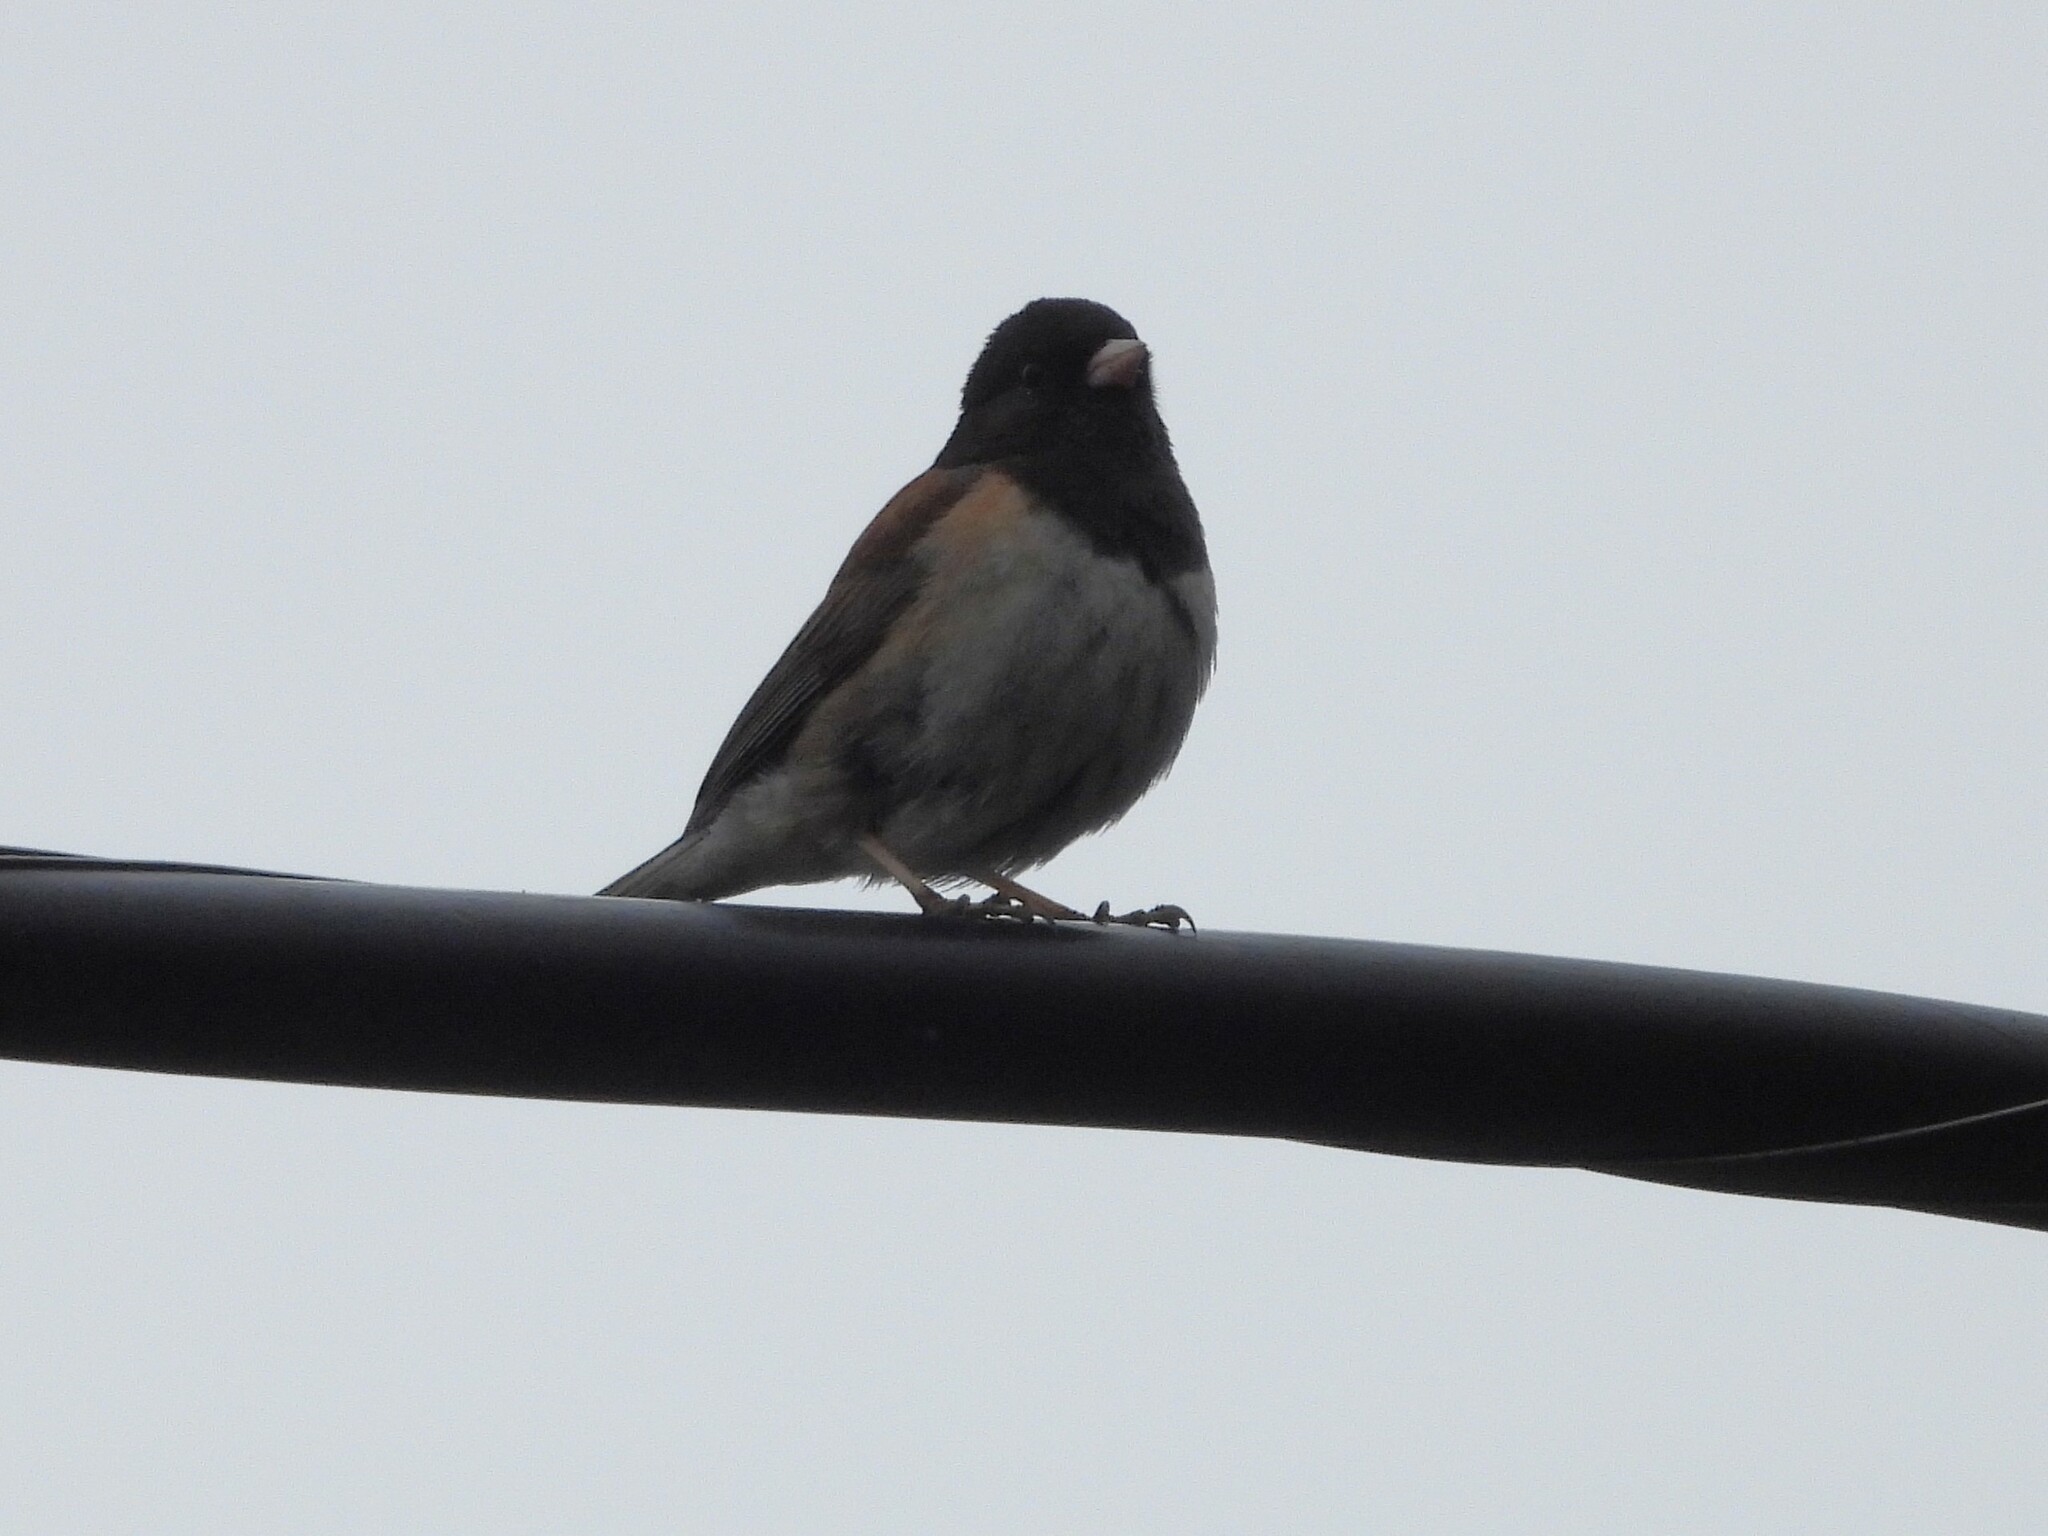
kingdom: Animalia
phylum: Chordata
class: Aves
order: Passeriformes
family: Passerellidae
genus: Junco
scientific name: Junco hyemalis
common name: Dark-eyed junco
